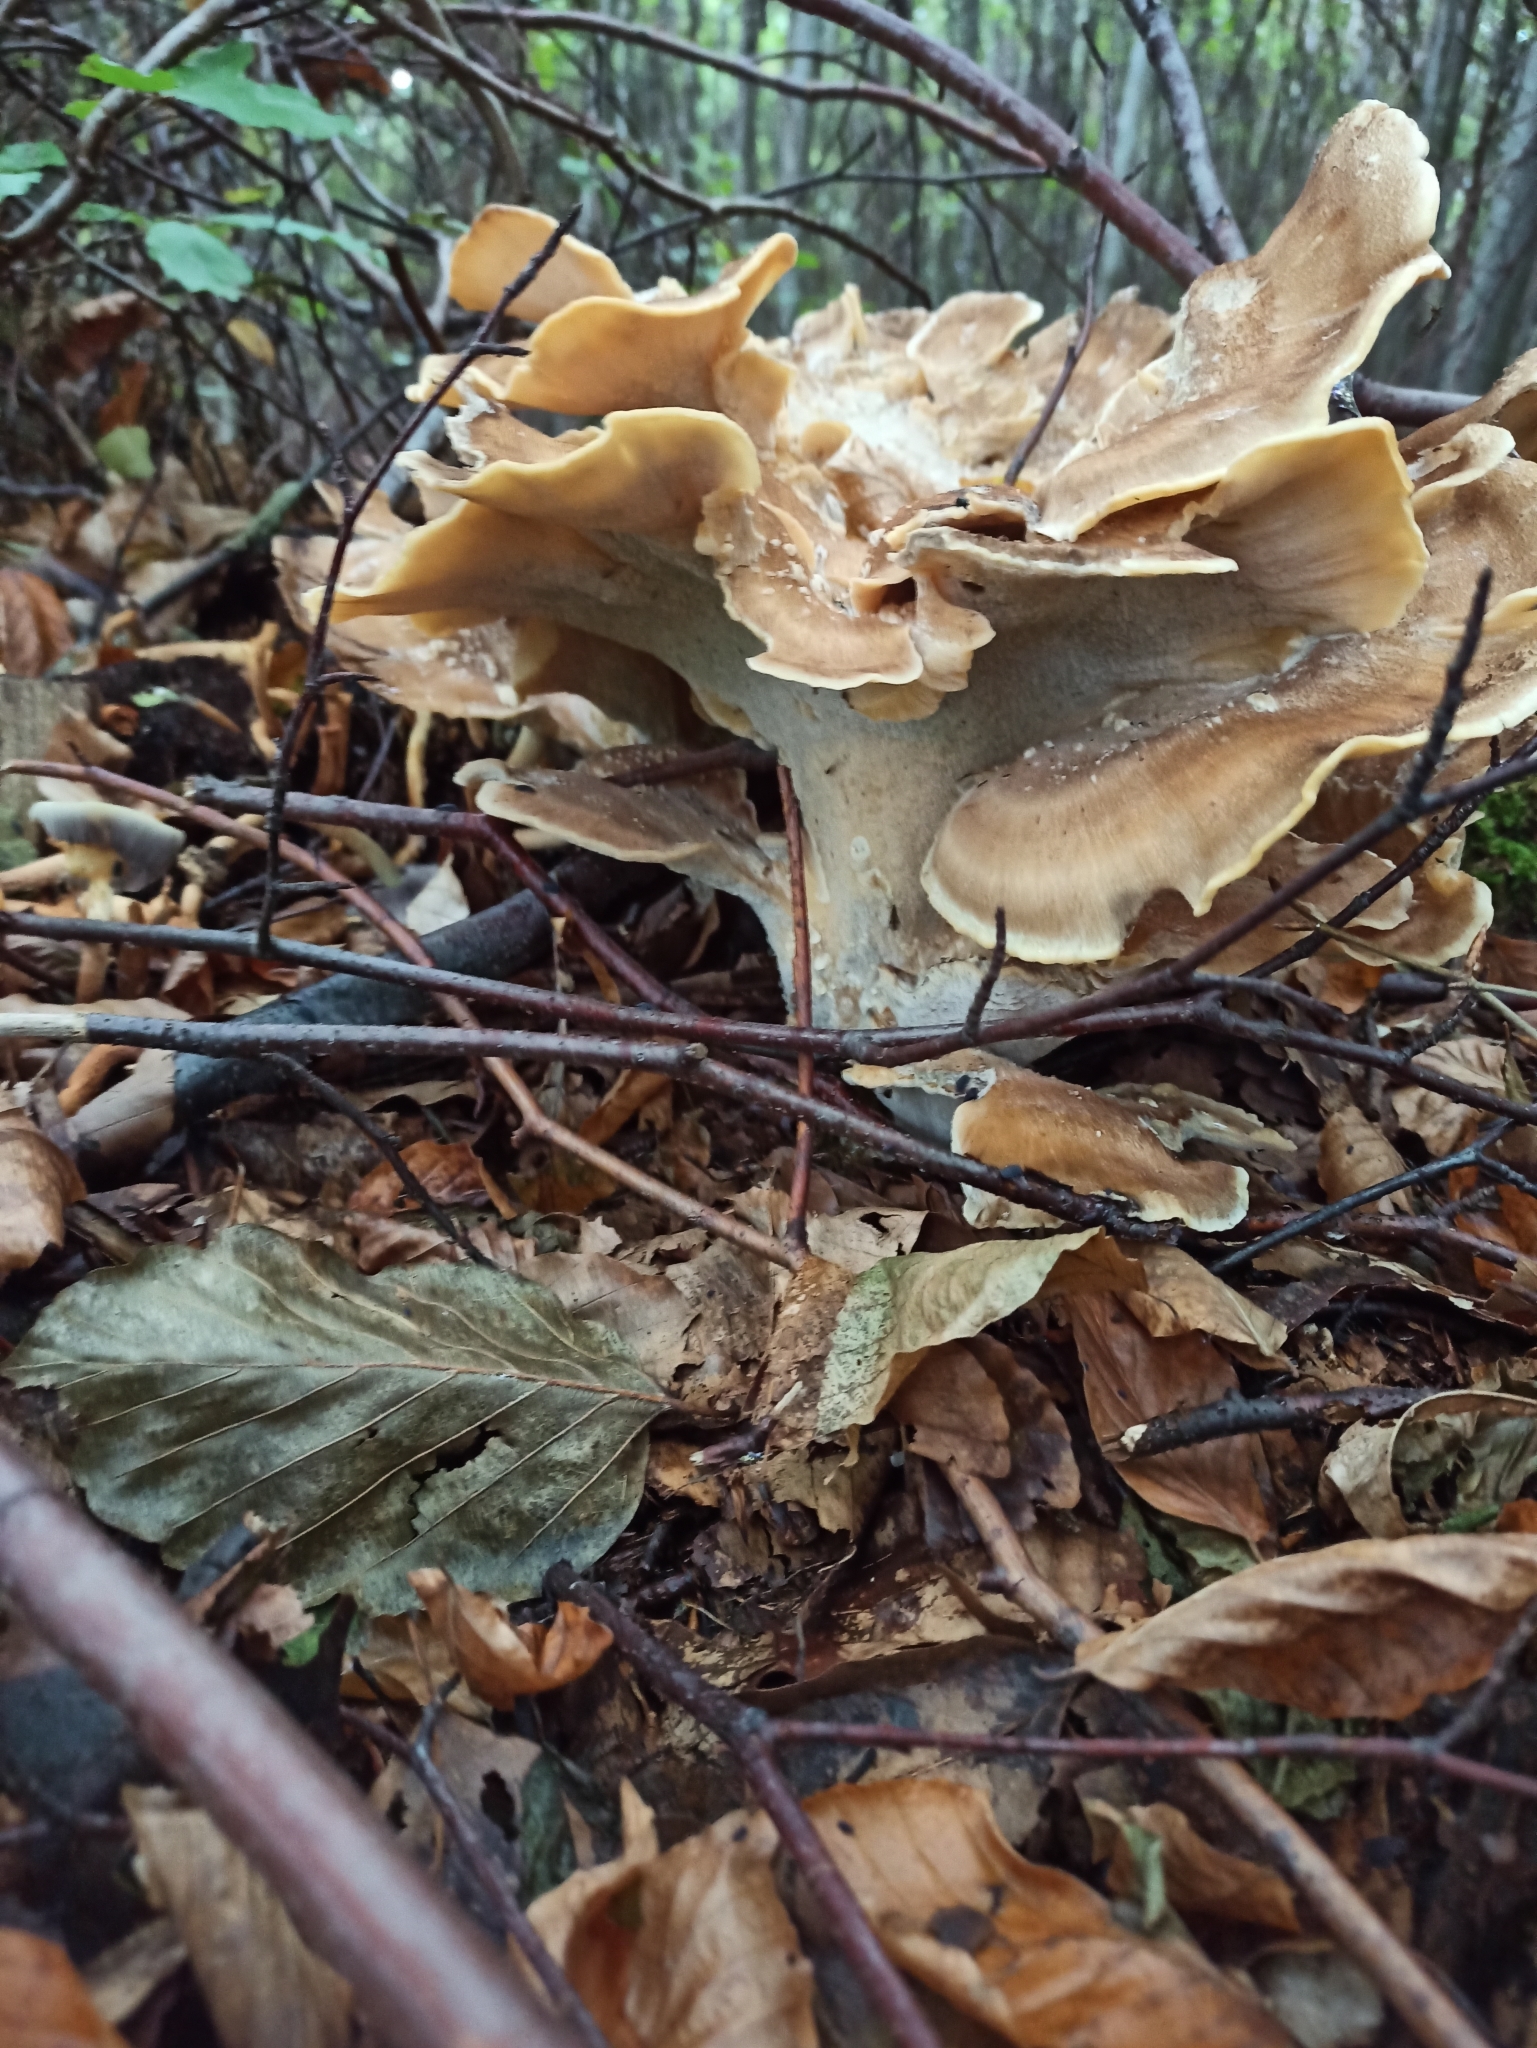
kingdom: Fungi
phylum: Basidiomycota
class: Agaricomycetes
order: Polyporales
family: Meripilaceae
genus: Meripilus
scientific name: Meripilus giganteus
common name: Giant polypore
